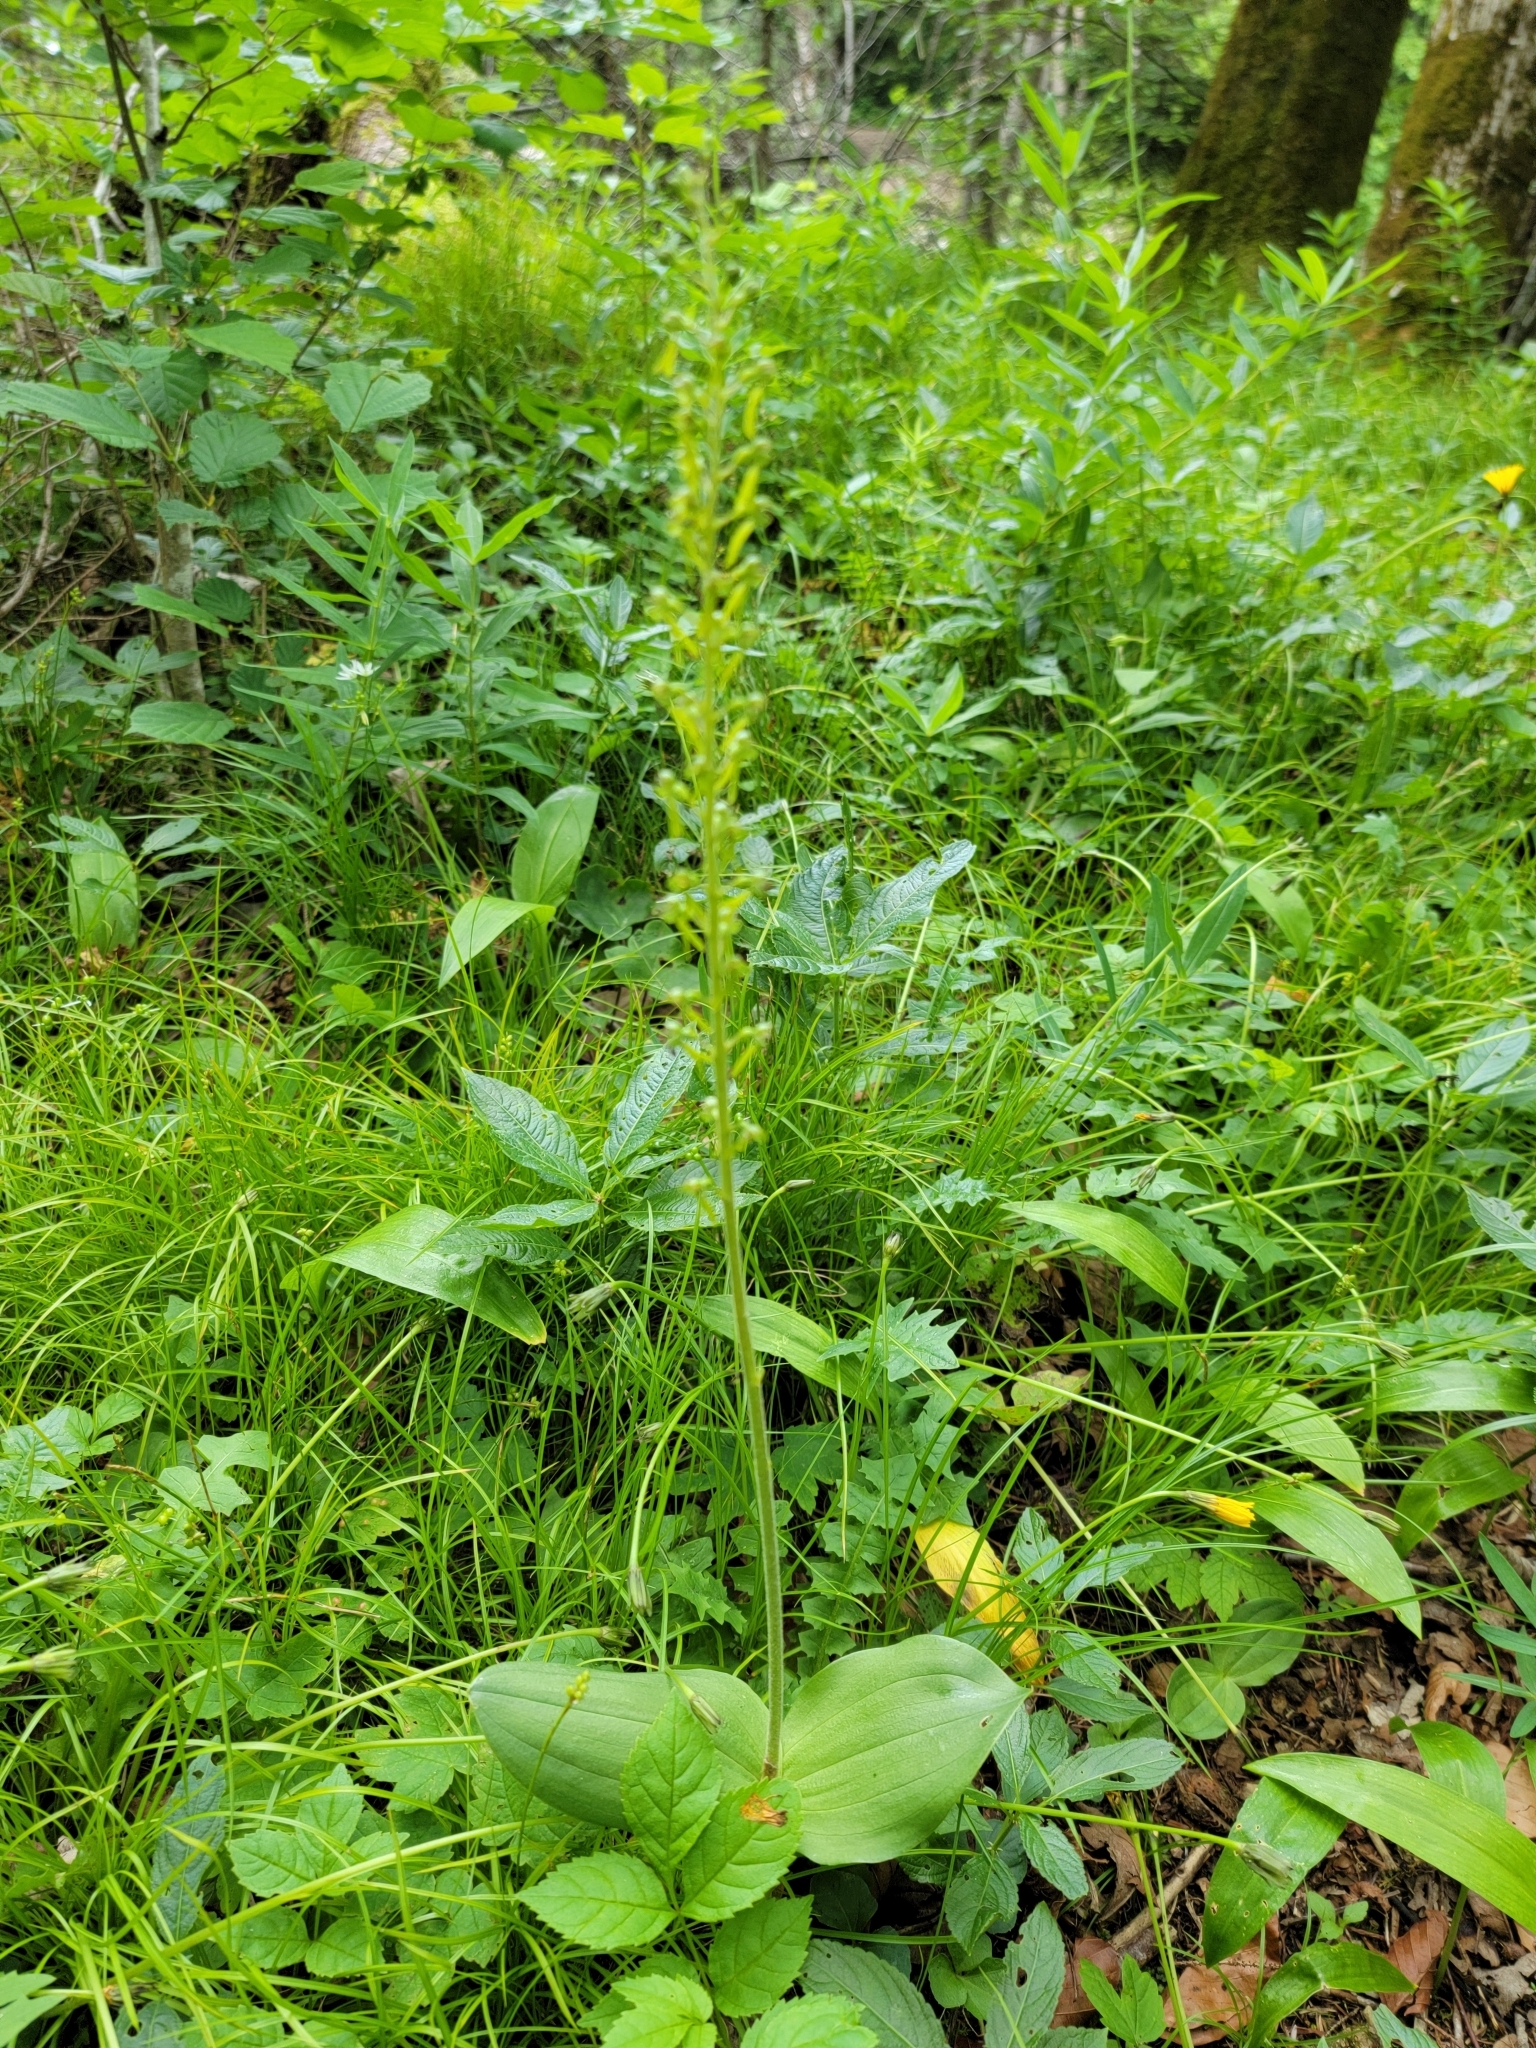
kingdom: Plantae
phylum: Tracheophyta
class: Liliopsida
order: Asparagales
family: Orchidaceae
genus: Neottia
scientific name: Neottia ovata
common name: Common twayblade
